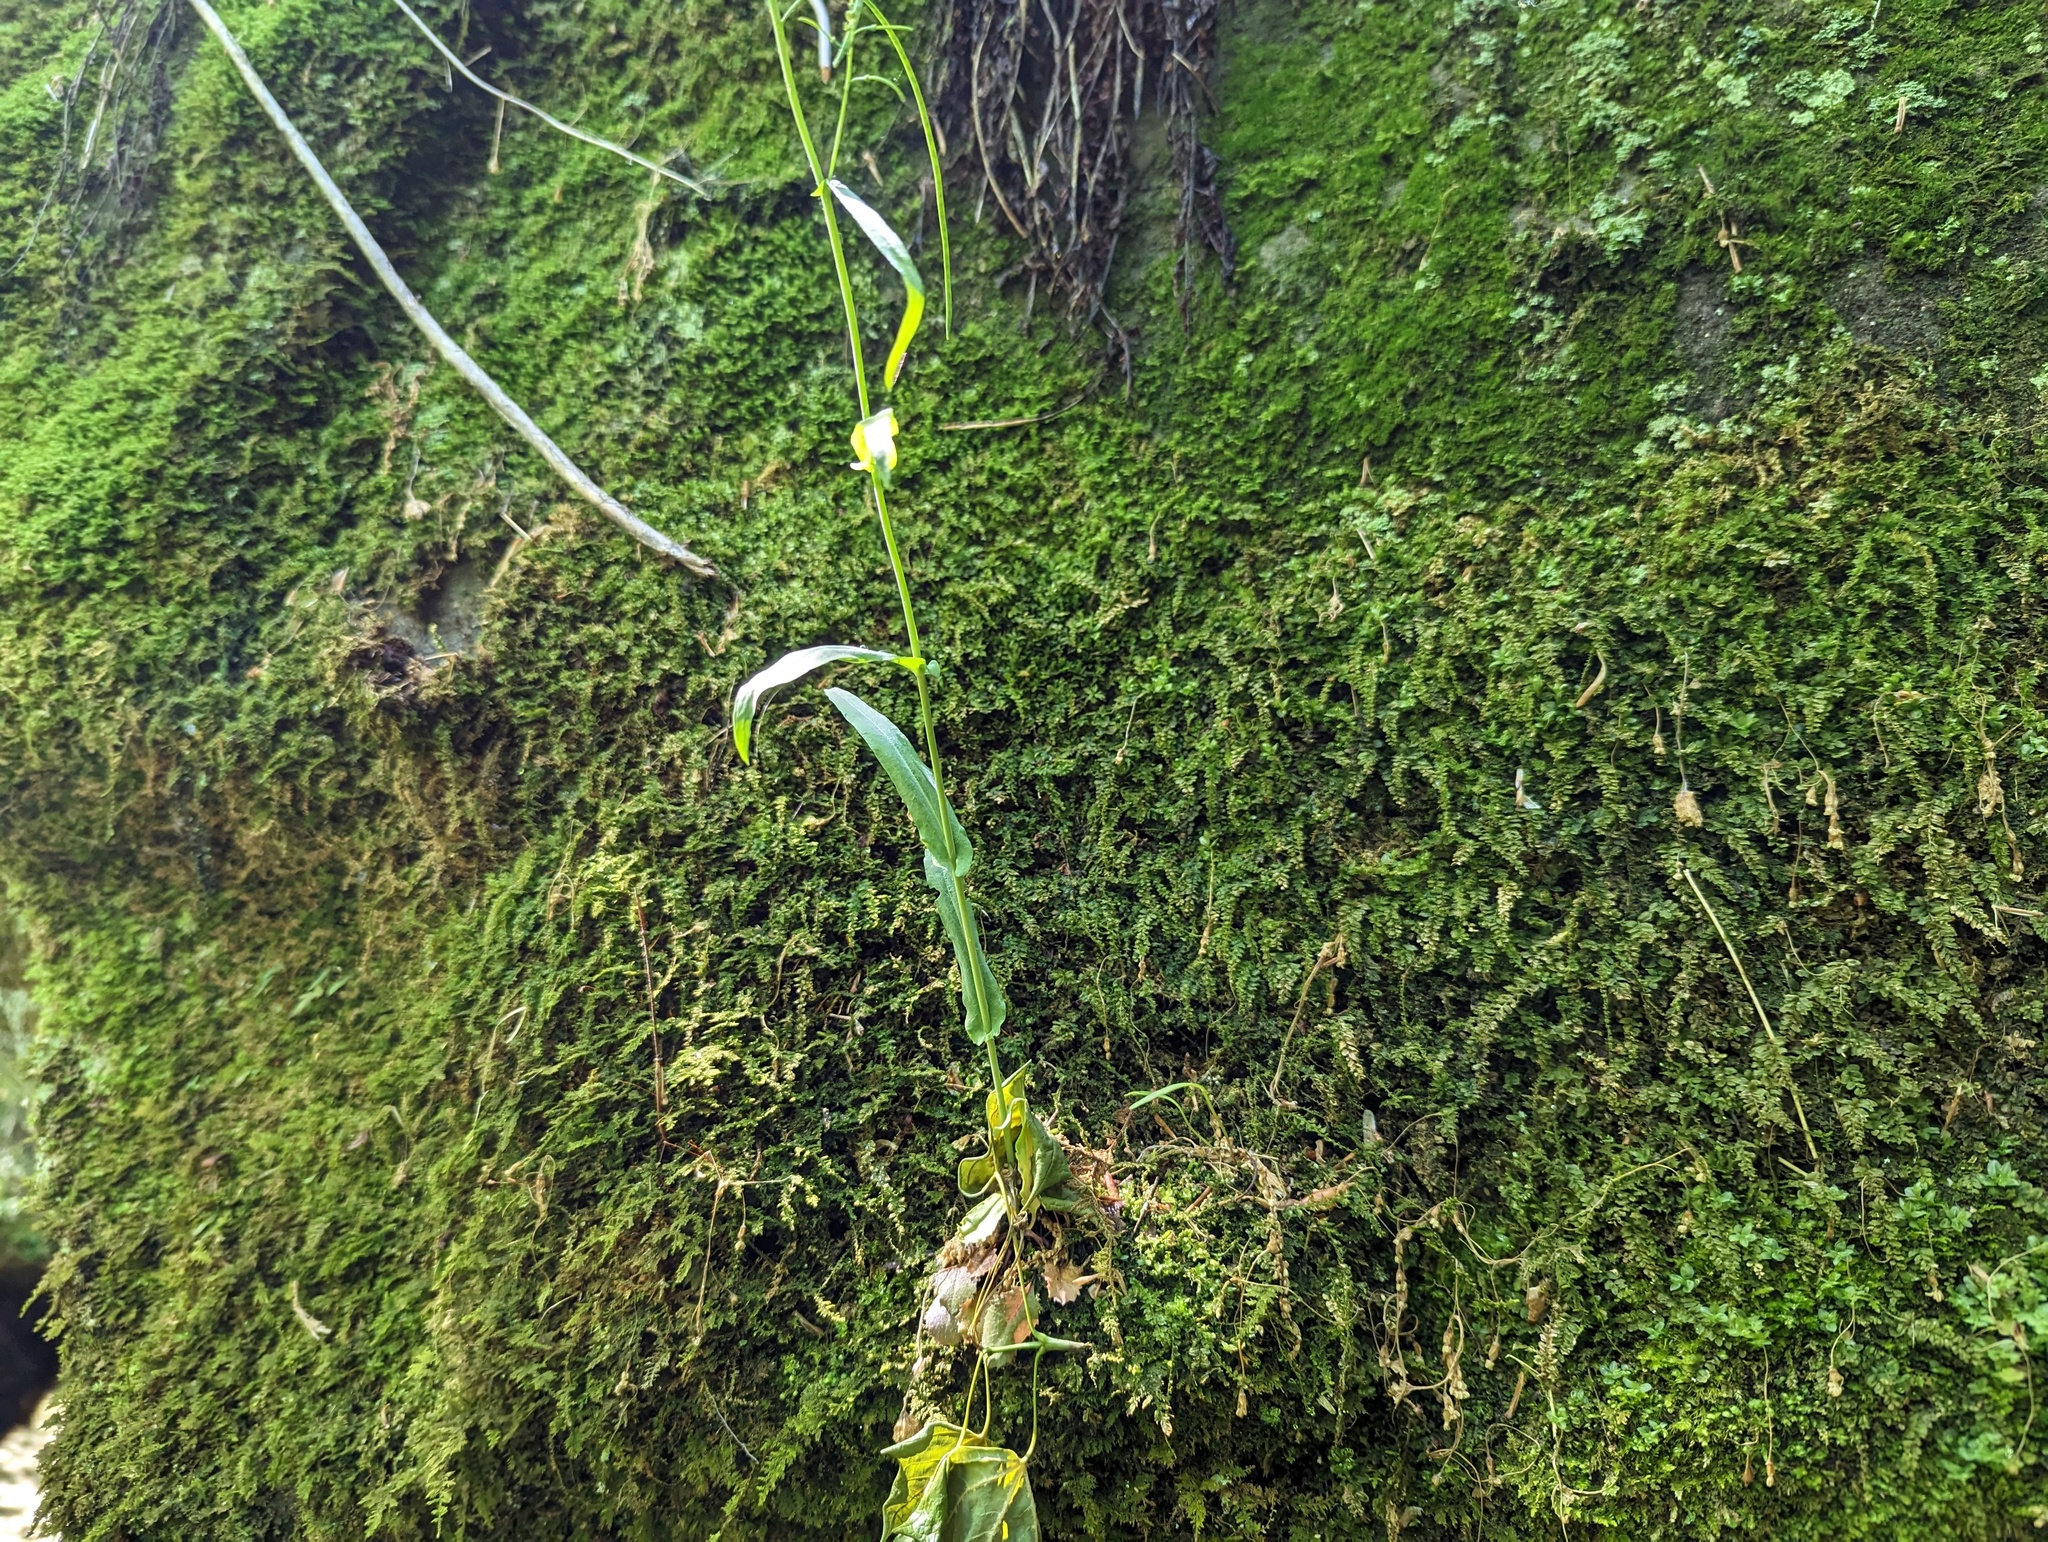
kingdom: Plantae
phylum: Tracheophyta
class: Magnoliopsida
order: Brassicales
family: Brassicaceae
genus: Borodinia
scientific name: Borodinia laevigata
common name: Smooth rockcress
